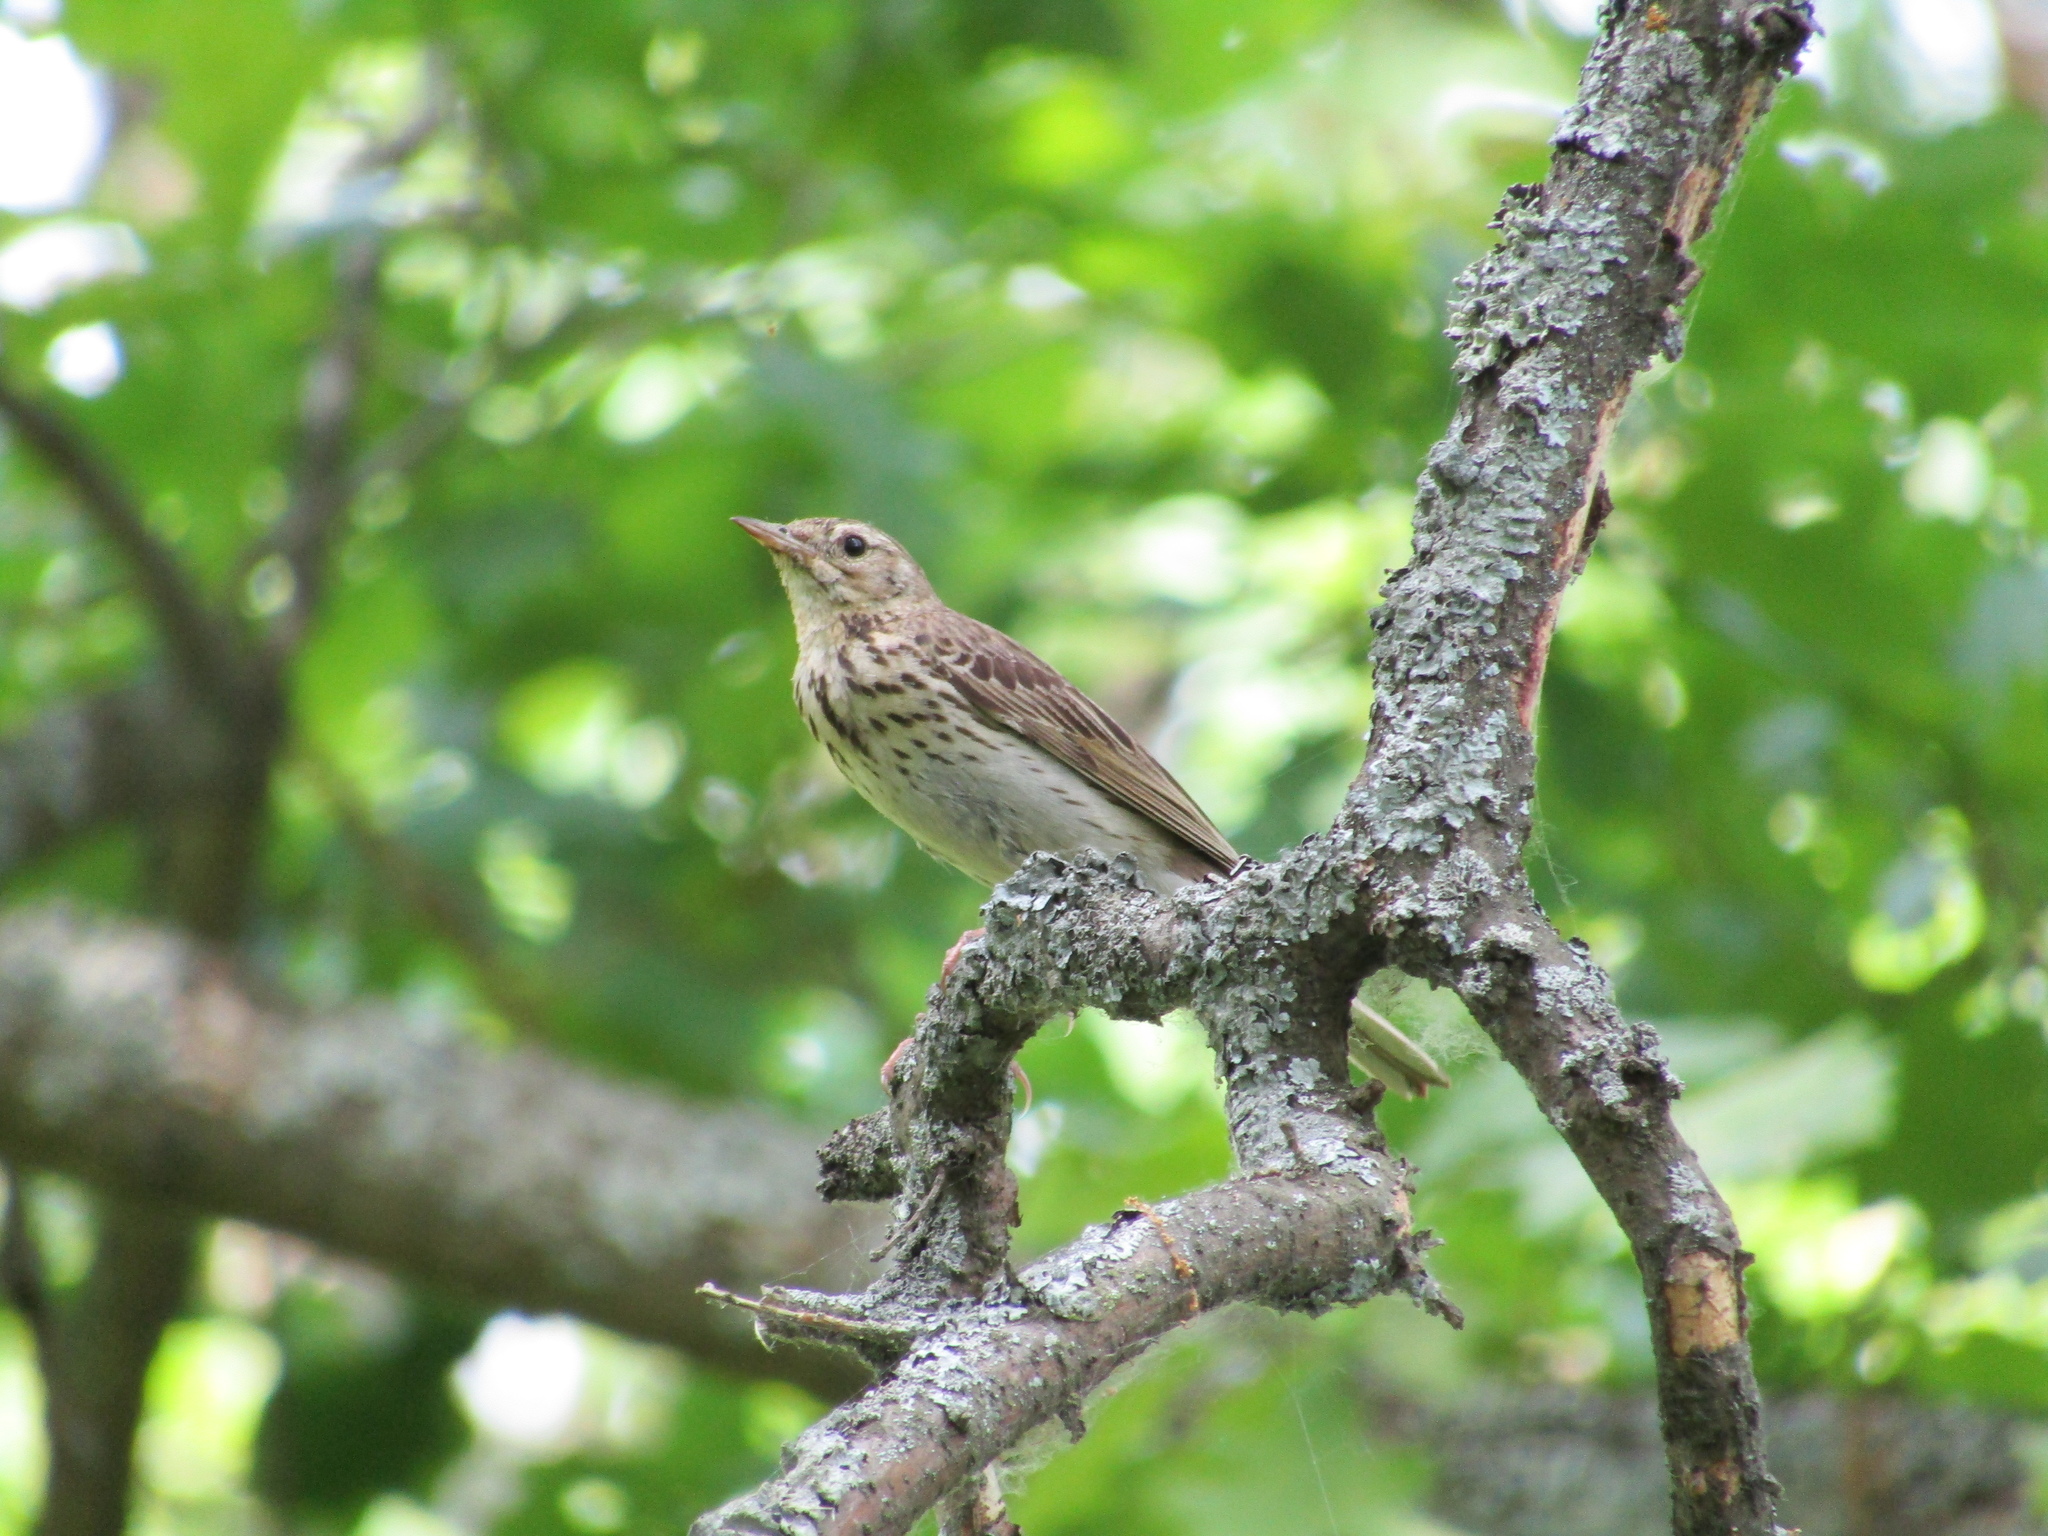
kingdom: Animalia
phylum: Chordata
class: Aves
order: Passeriformes
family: Motacillidae
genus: Anthus
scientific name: Anthus trivialis
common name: Tree pipit
